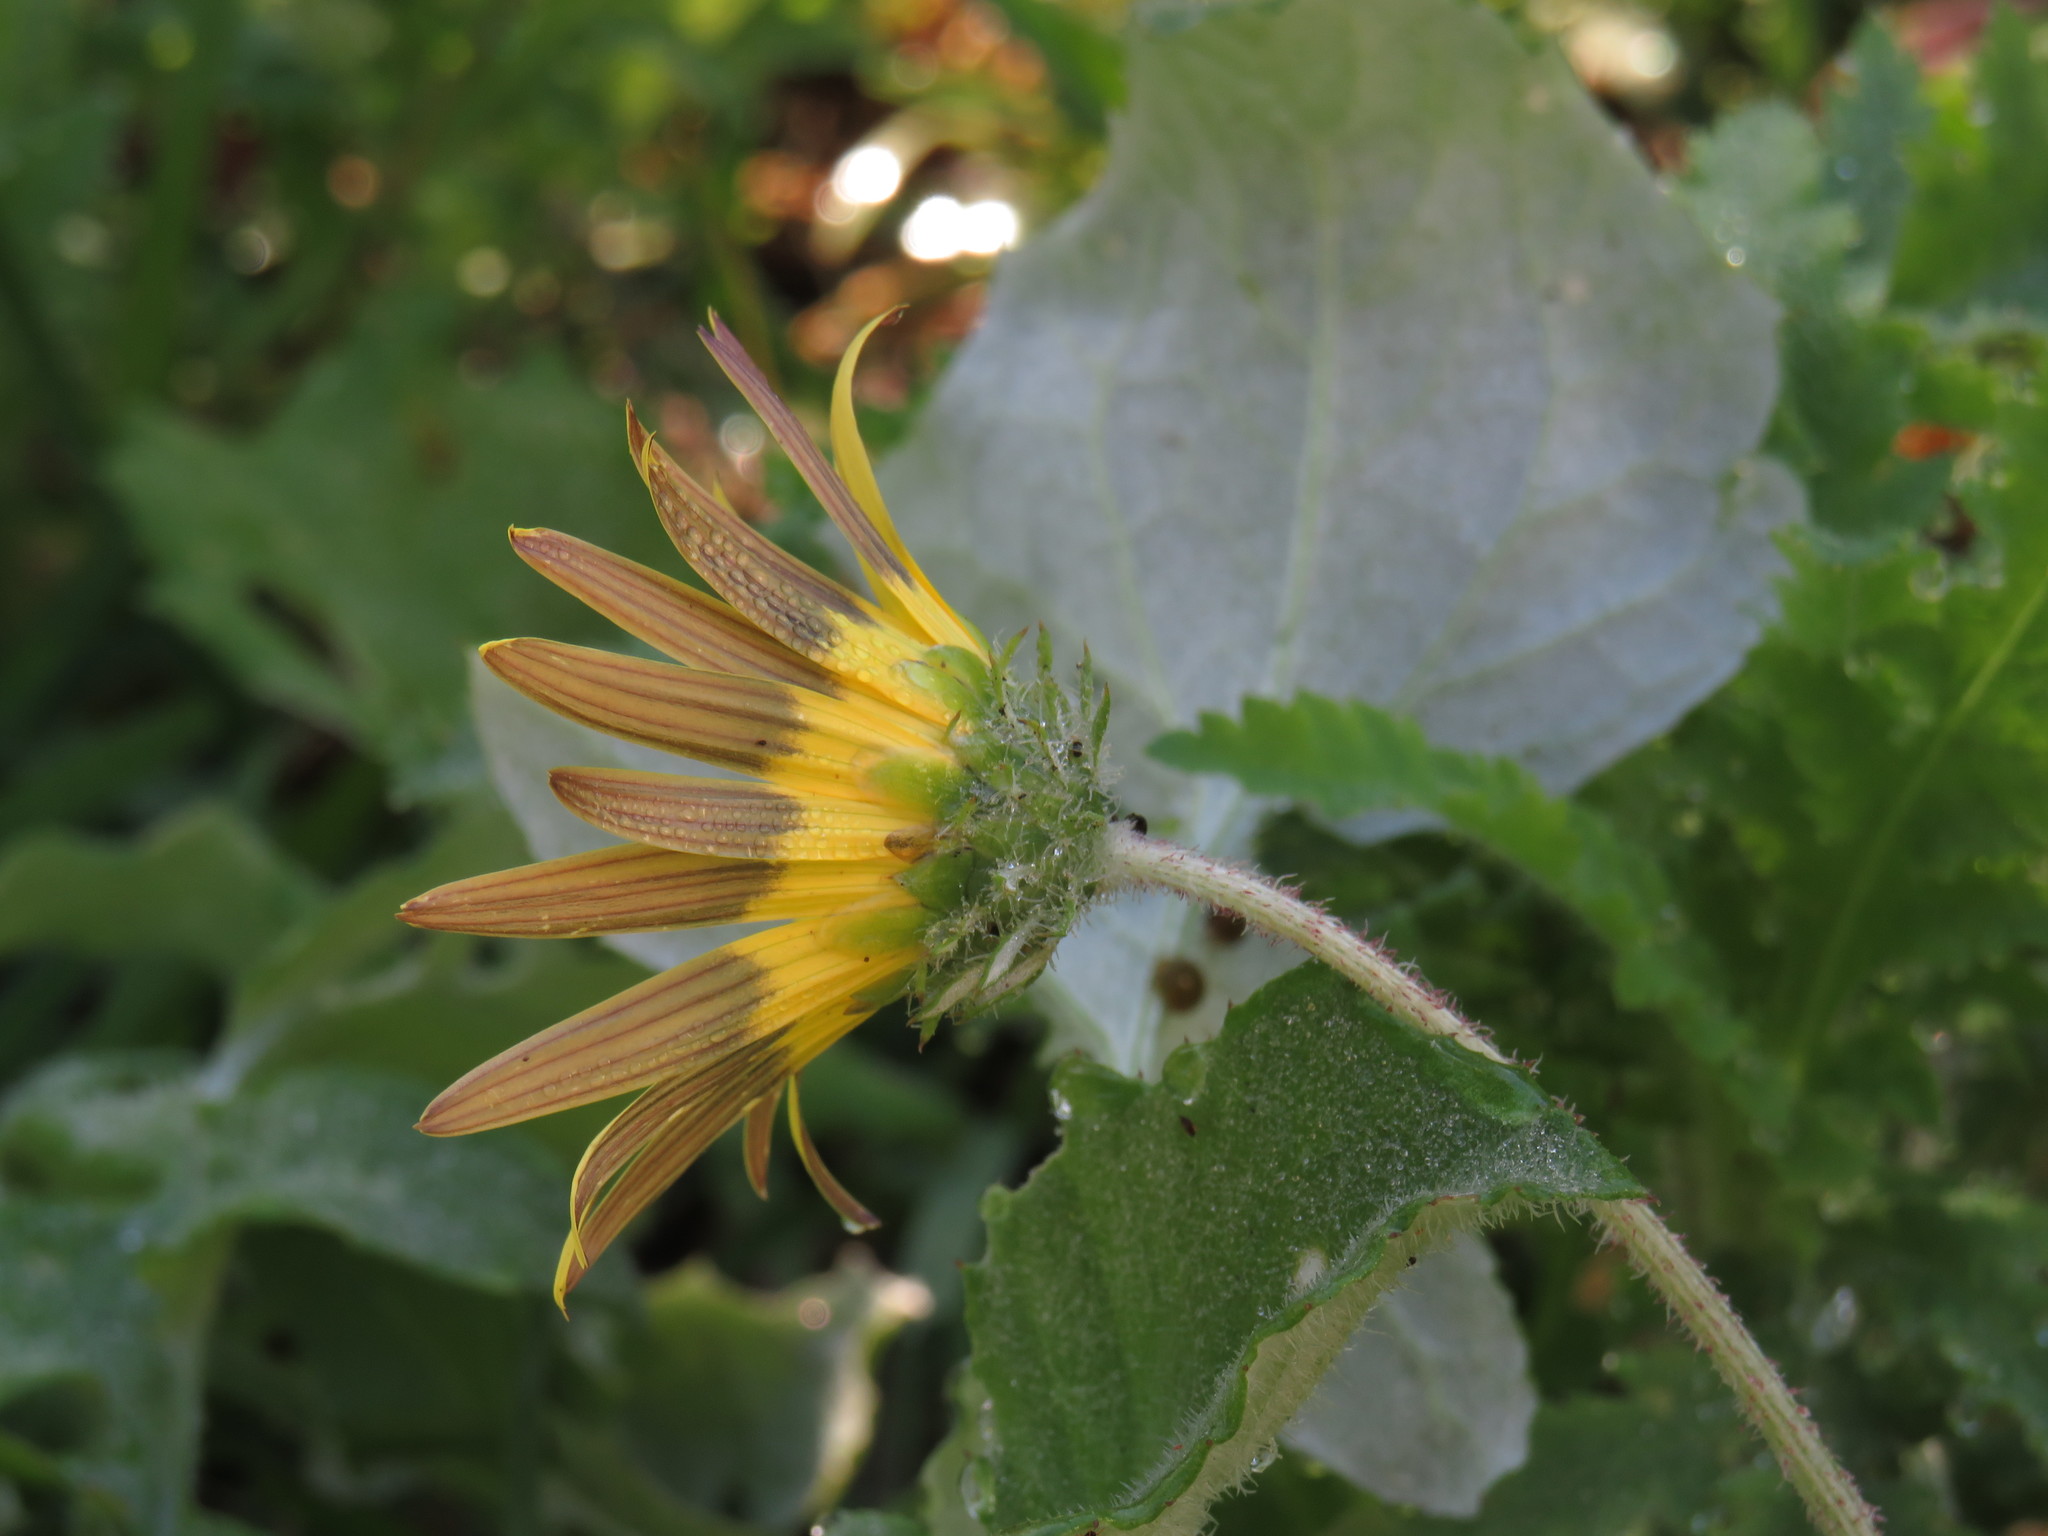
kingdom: Plantae
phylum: Tracheophyta
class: Magnoliopsida
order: Asterales
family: Asteraceae
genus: Arctotheca
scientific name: Arctotheca calendula
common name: Capeweed
